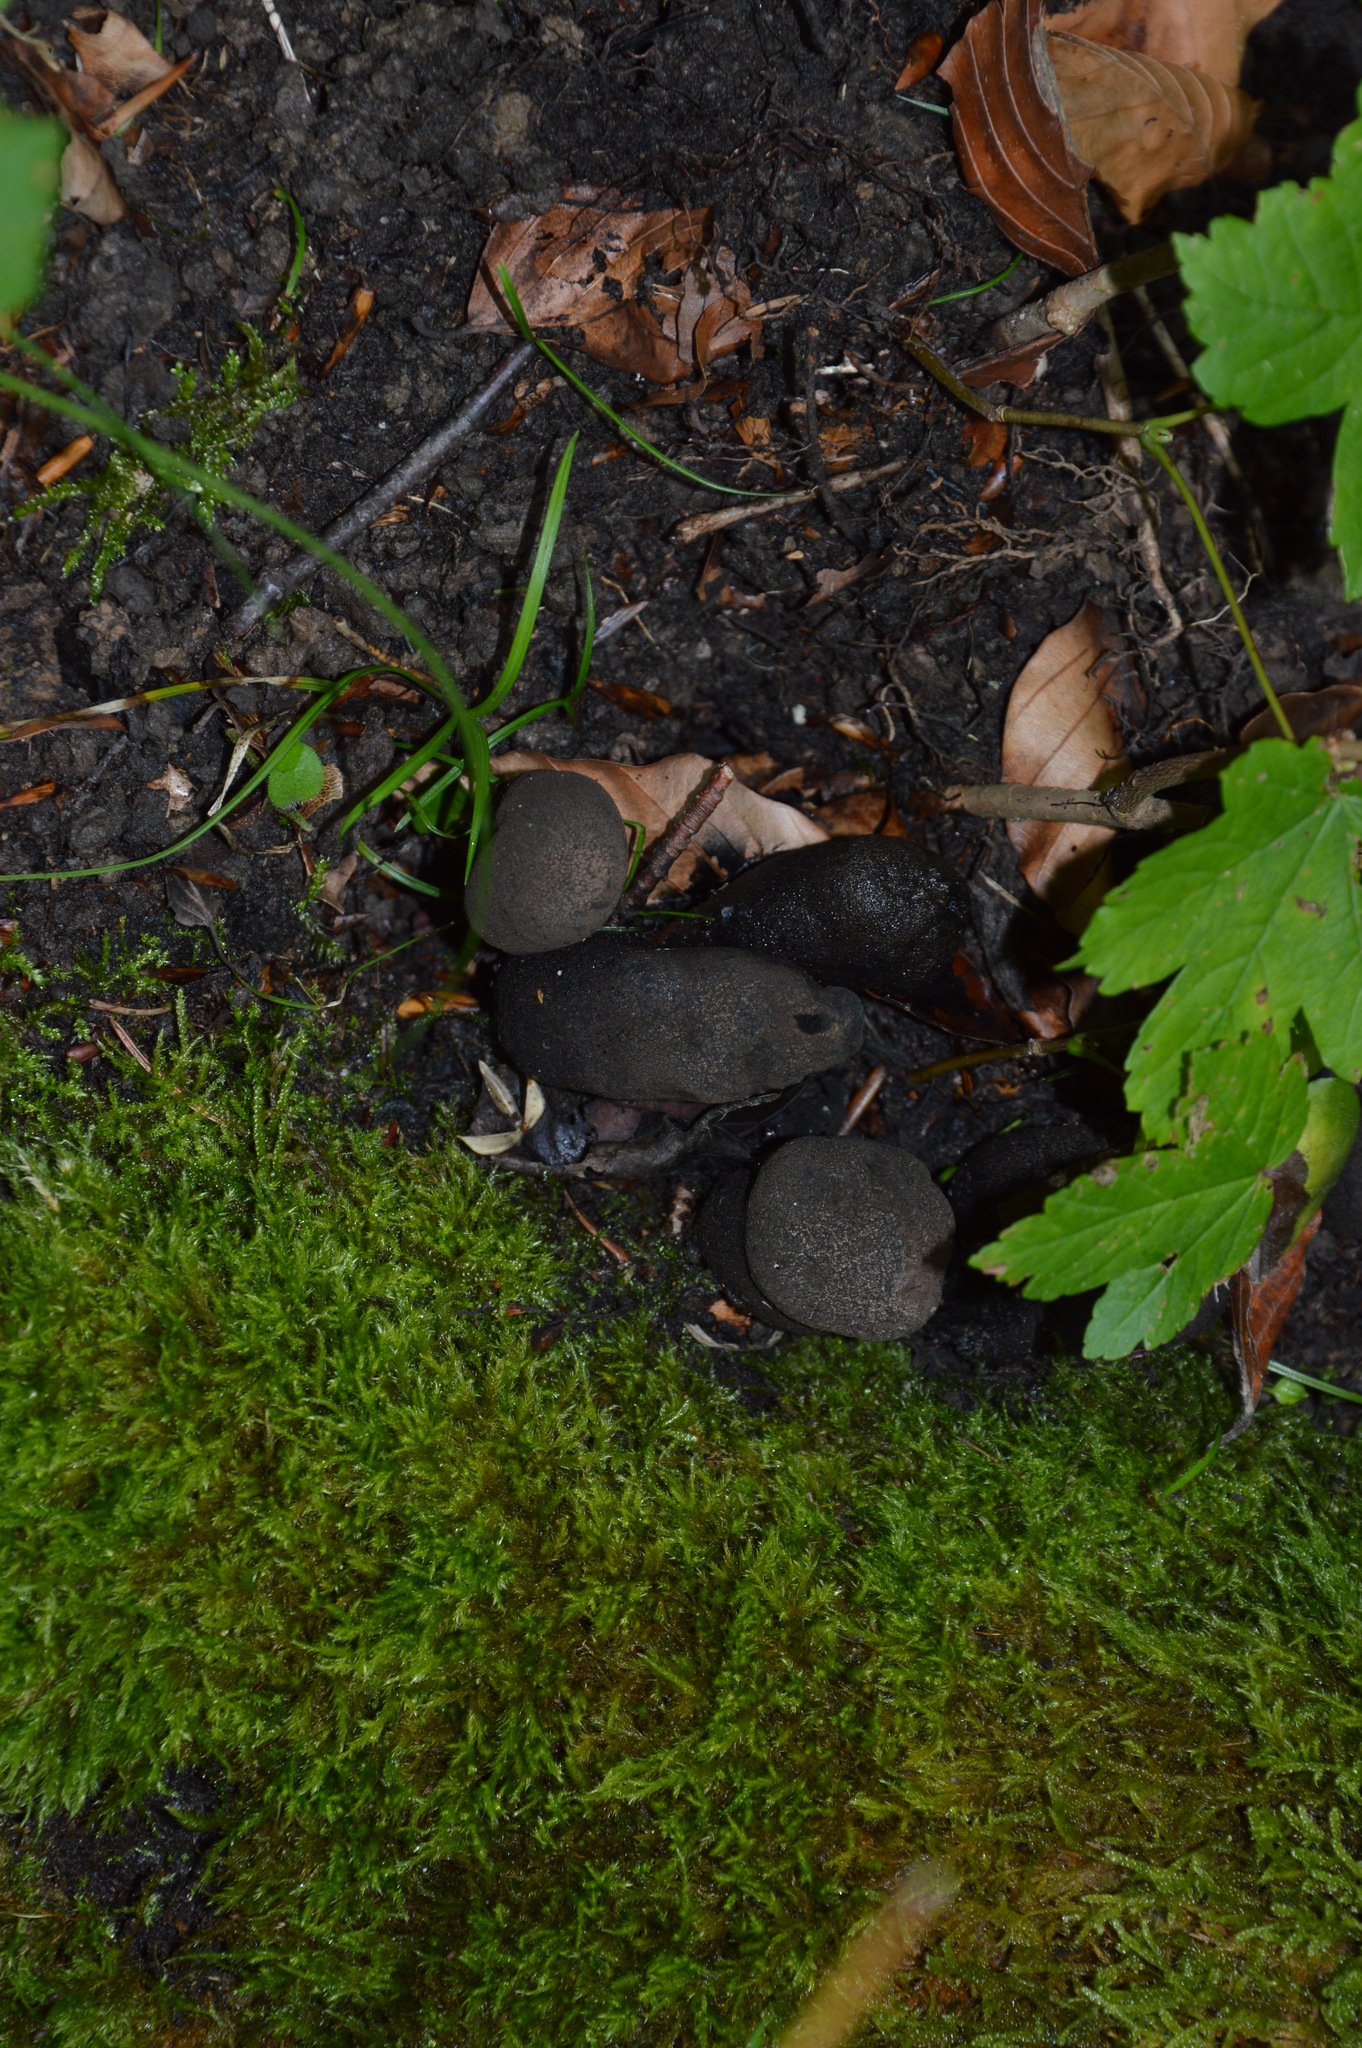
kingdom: Fungi
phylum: Ascomycota
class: Sordariomycetes
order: Xylariales
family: Xylariaceae
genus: Xylaria
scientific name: Xylaria
